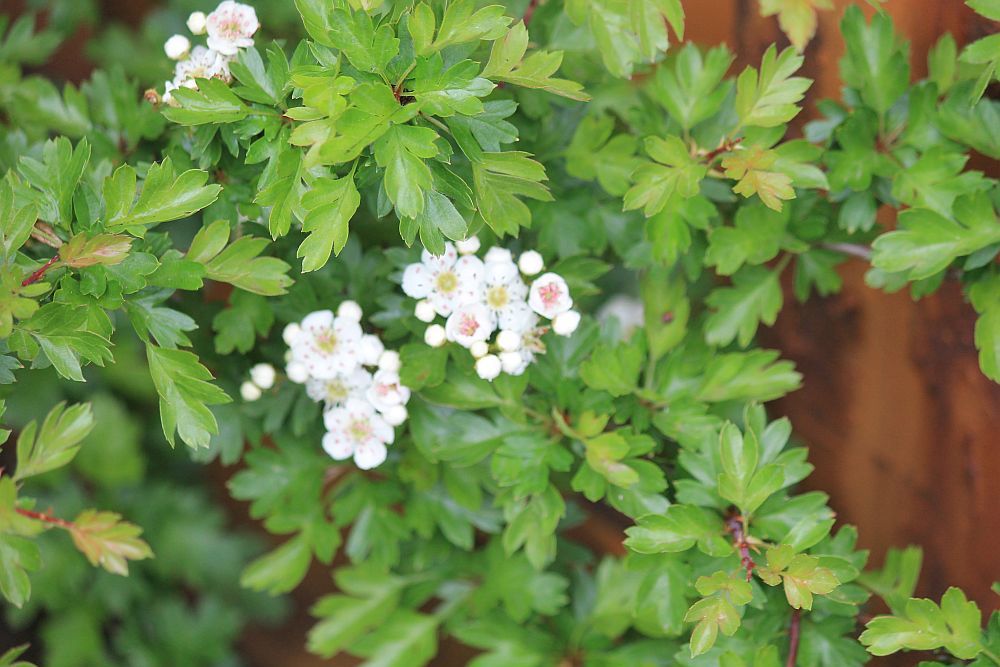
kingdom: Plantae
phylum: Tracheophyta
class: Magnoliopsida
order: Rosales
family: Rosaceae
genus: Crataegus
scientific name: Crataegus monogyna
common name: Hawthorn
